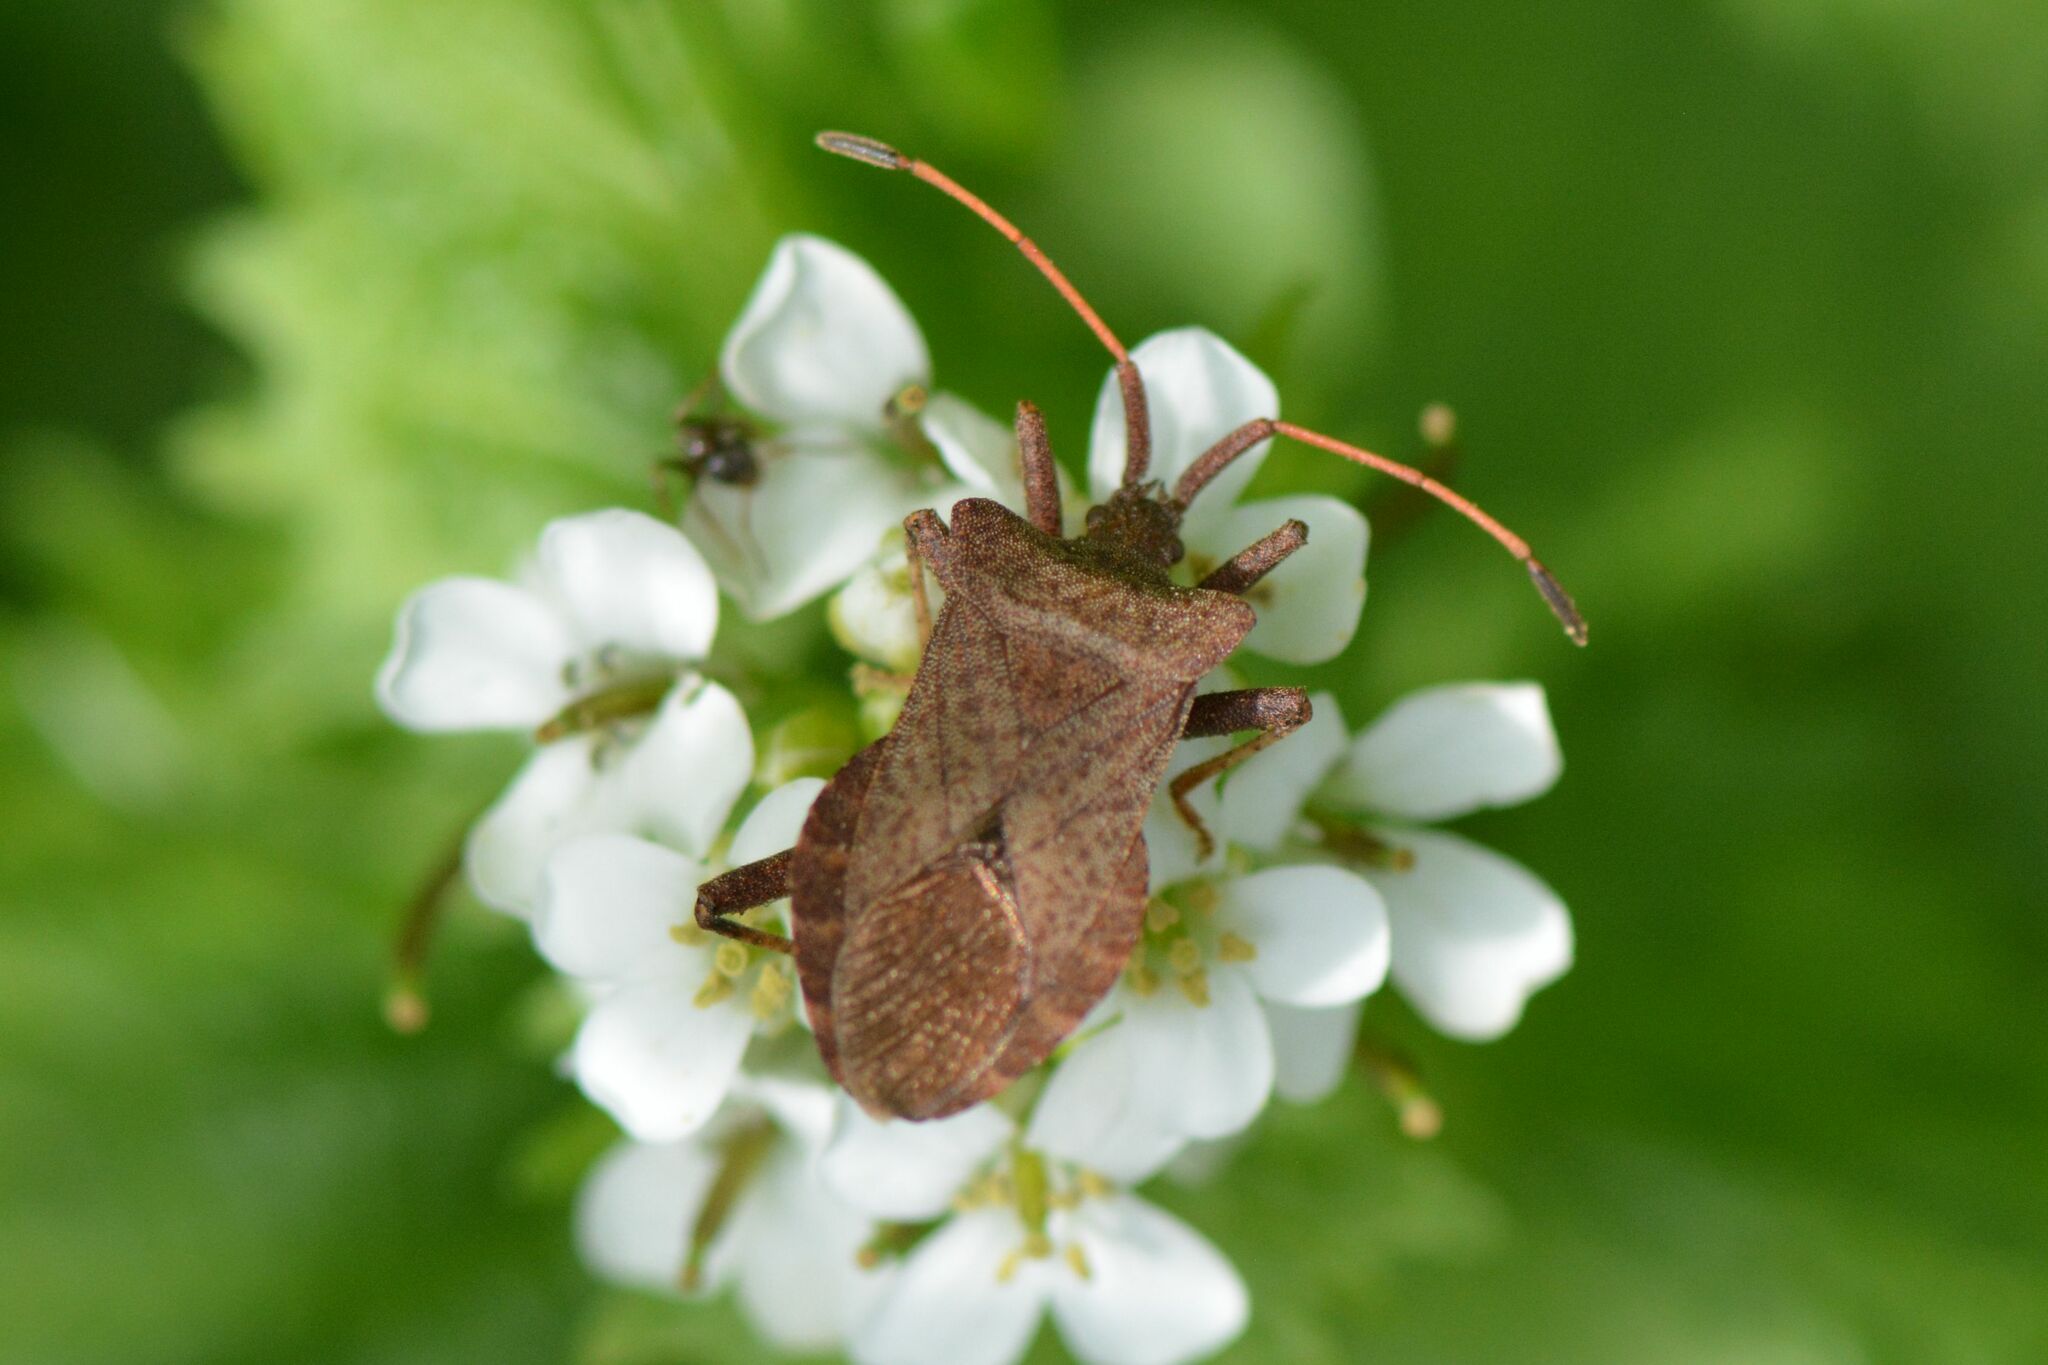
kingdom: Animalia
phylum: Arthropoda
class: Insecta
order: Hemiptera
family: Coreidae
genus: Coreus
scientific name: Coreus marginatus
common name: Dock bug
